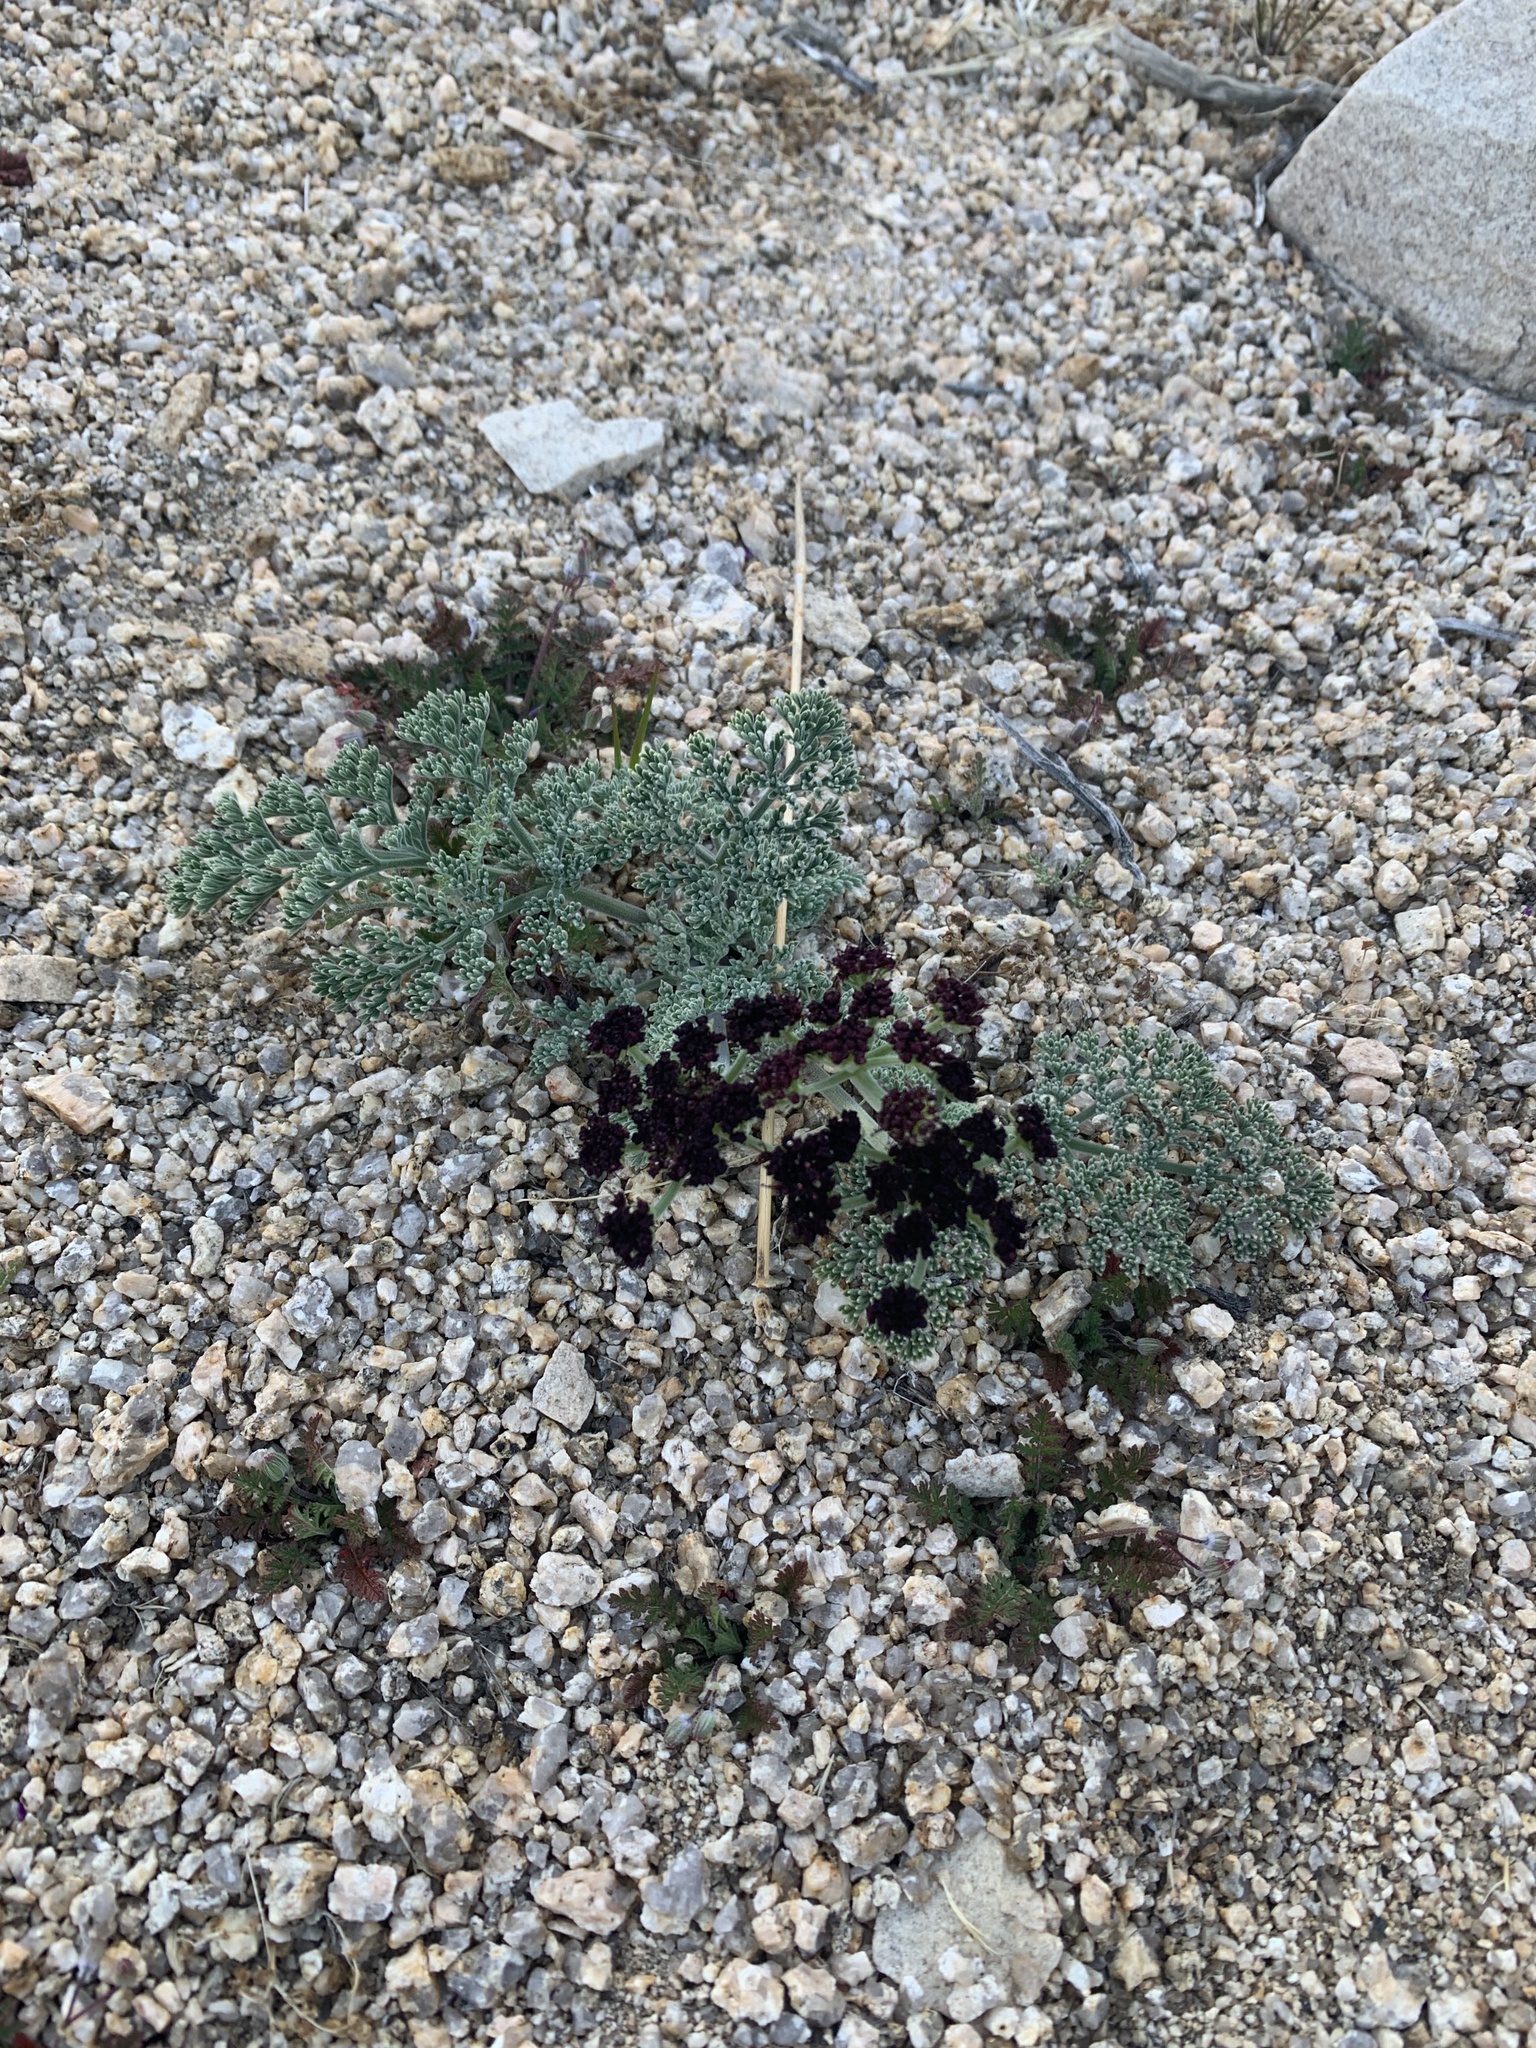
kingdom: Plantae
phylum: Tracheophyta
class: Magnoliopsida
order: Apiales
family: Apiaceae
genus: Lomatium
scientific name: Lomatium mohavense
